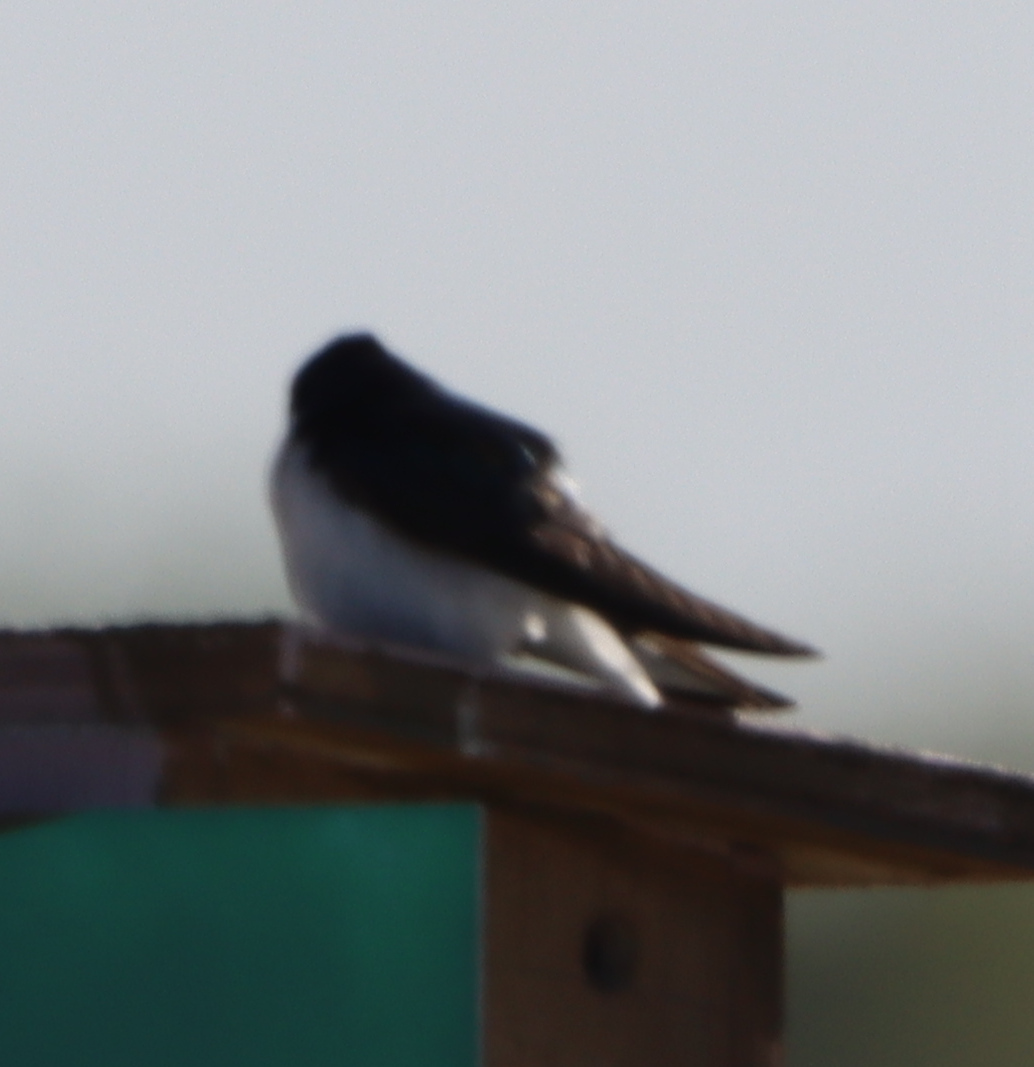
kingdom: Animalia
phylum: Chordata
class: Aves
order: Passeriformes
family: Hirundinidae
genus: Tachycineta
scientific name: Tachycineta bicolor
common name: Tree swallow
